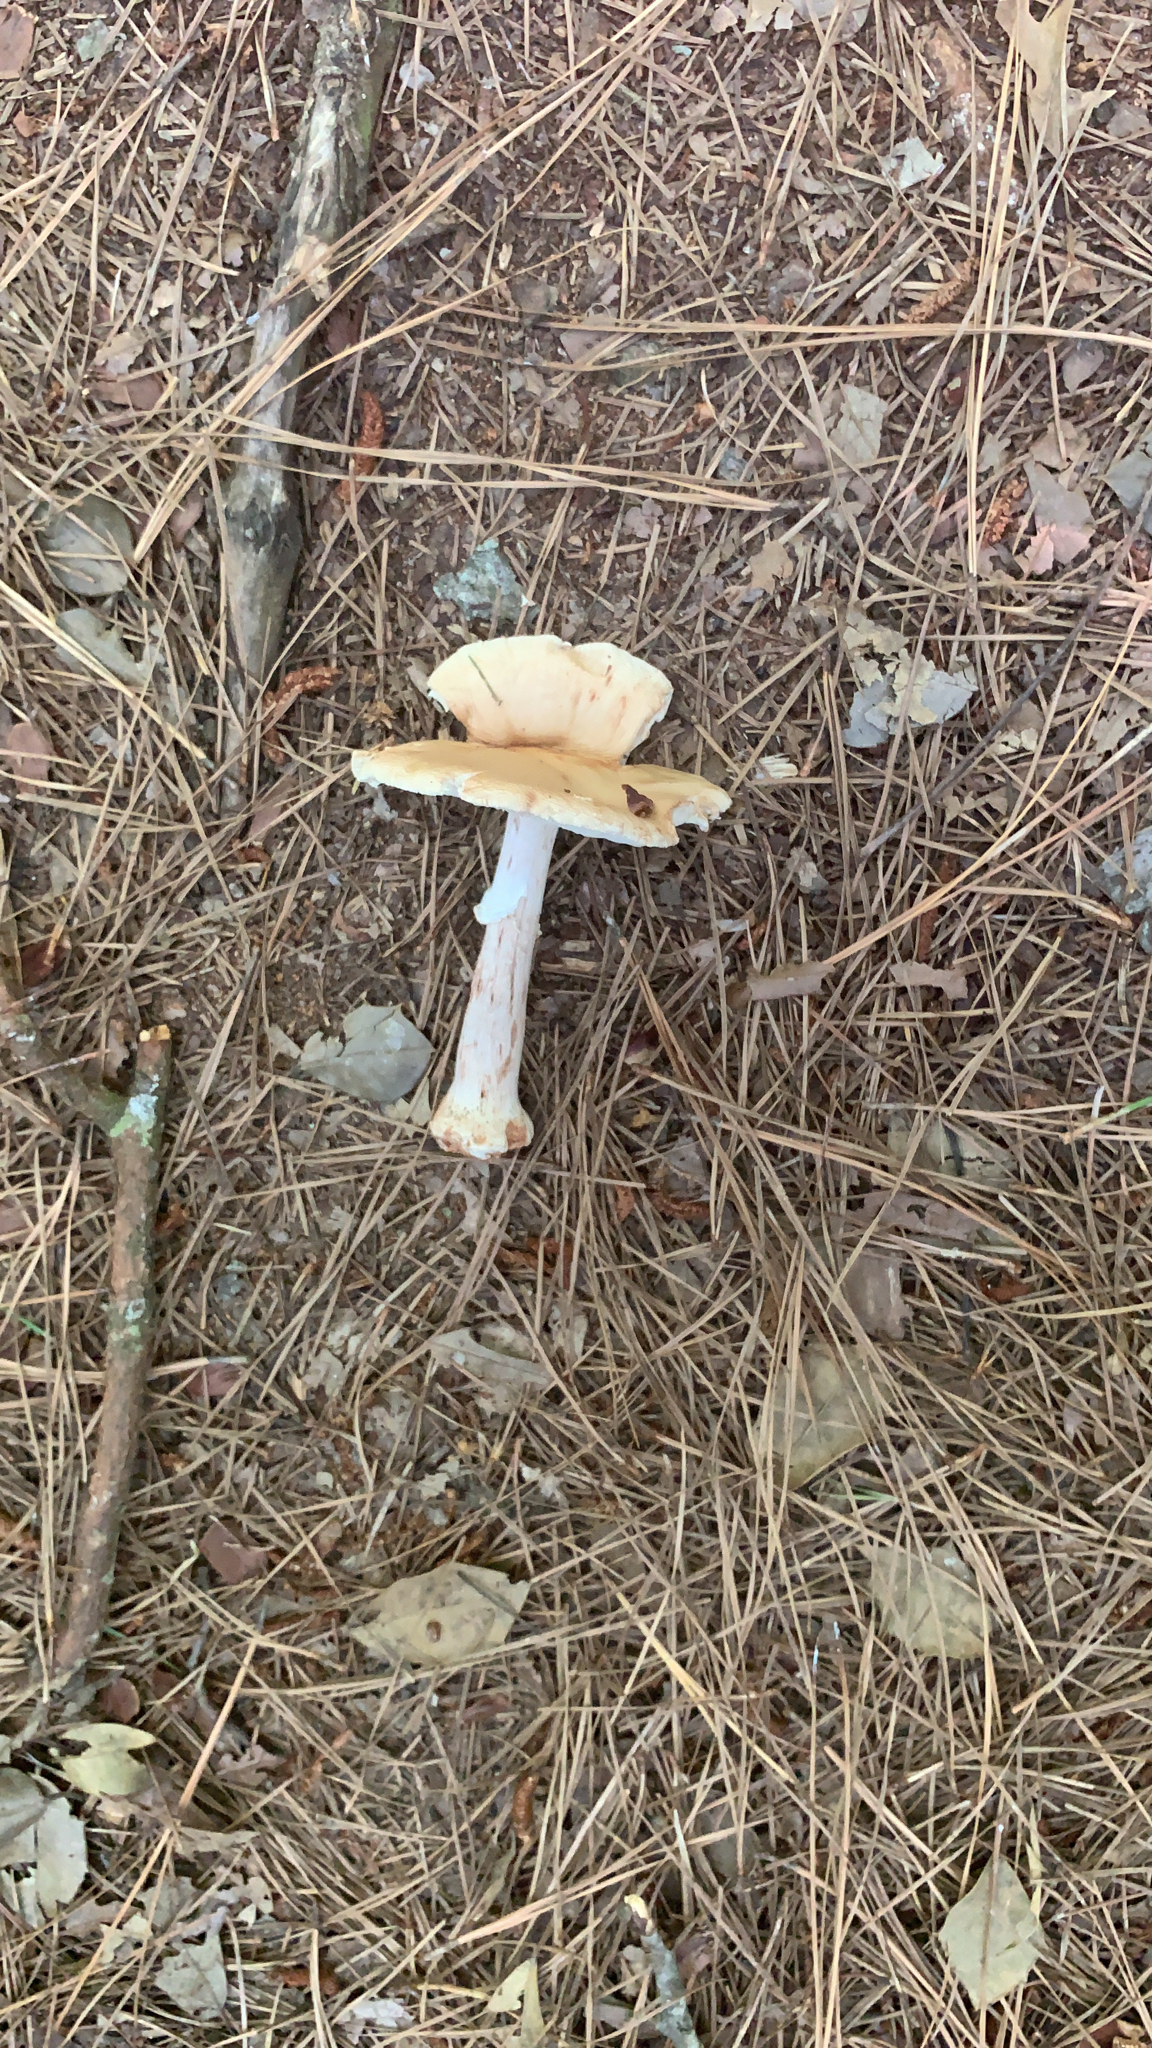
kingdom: Fungi
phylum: Basidiomycota
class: Agaricomycetes
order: Agaricales
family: Amanitaceae
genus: Amanita
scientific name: Amanita
